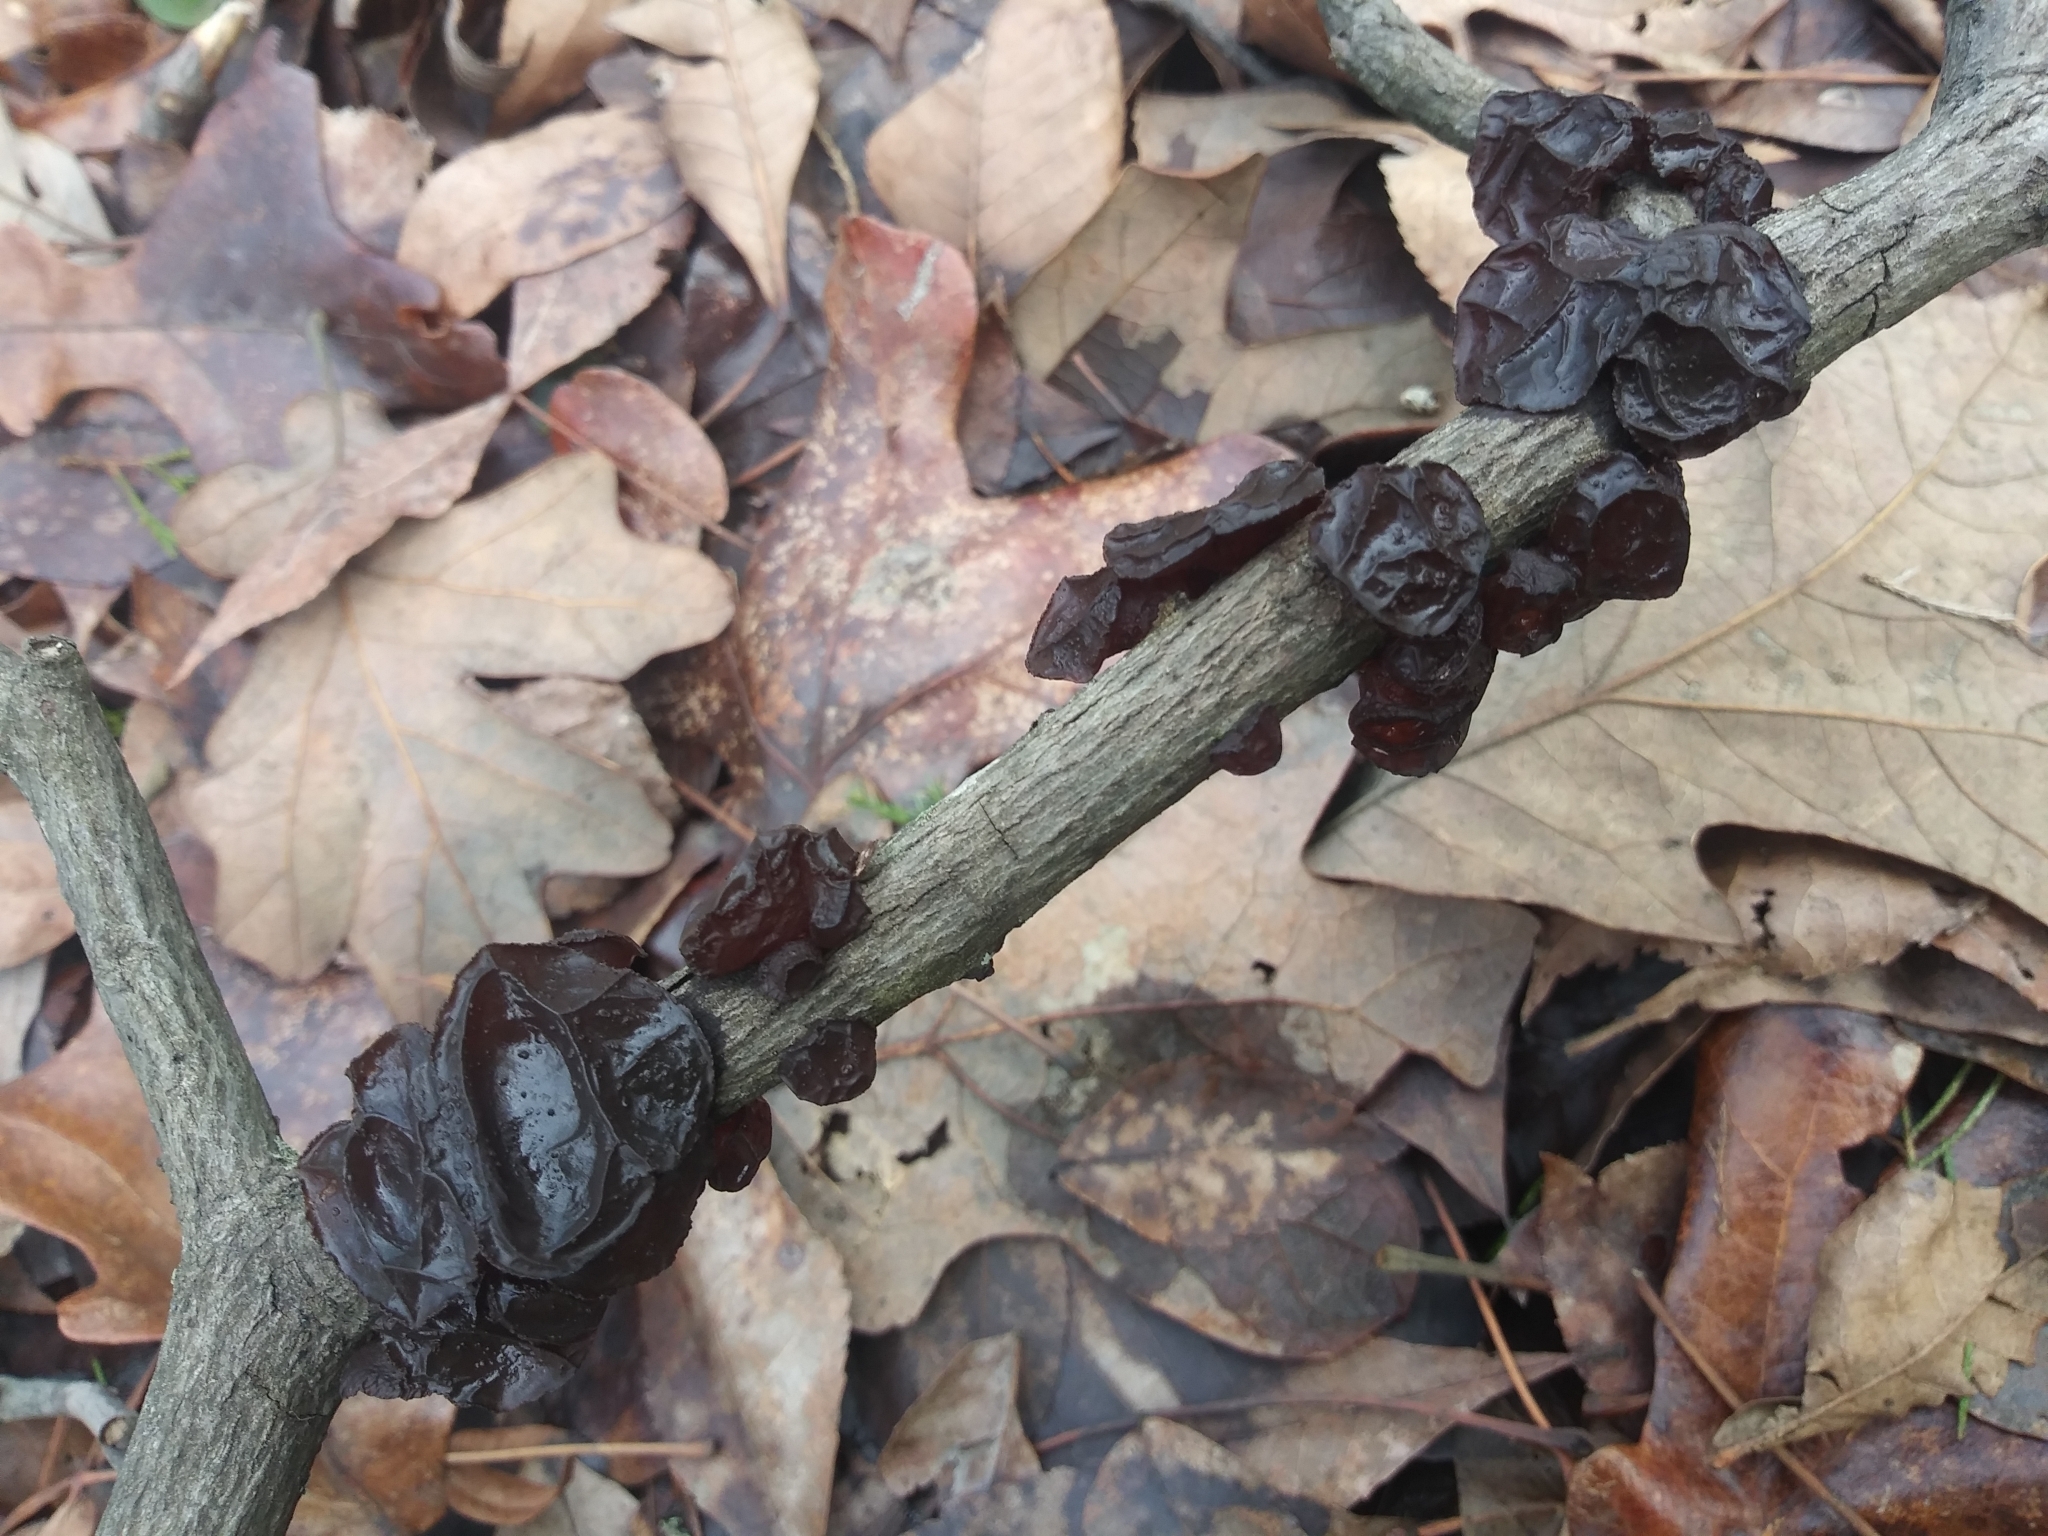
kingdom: Fungi
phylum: Basidiomycota
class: Agaricomycetes
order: Auriculariales
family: Auriculariaceae
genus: Exidia
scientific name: Exidia
